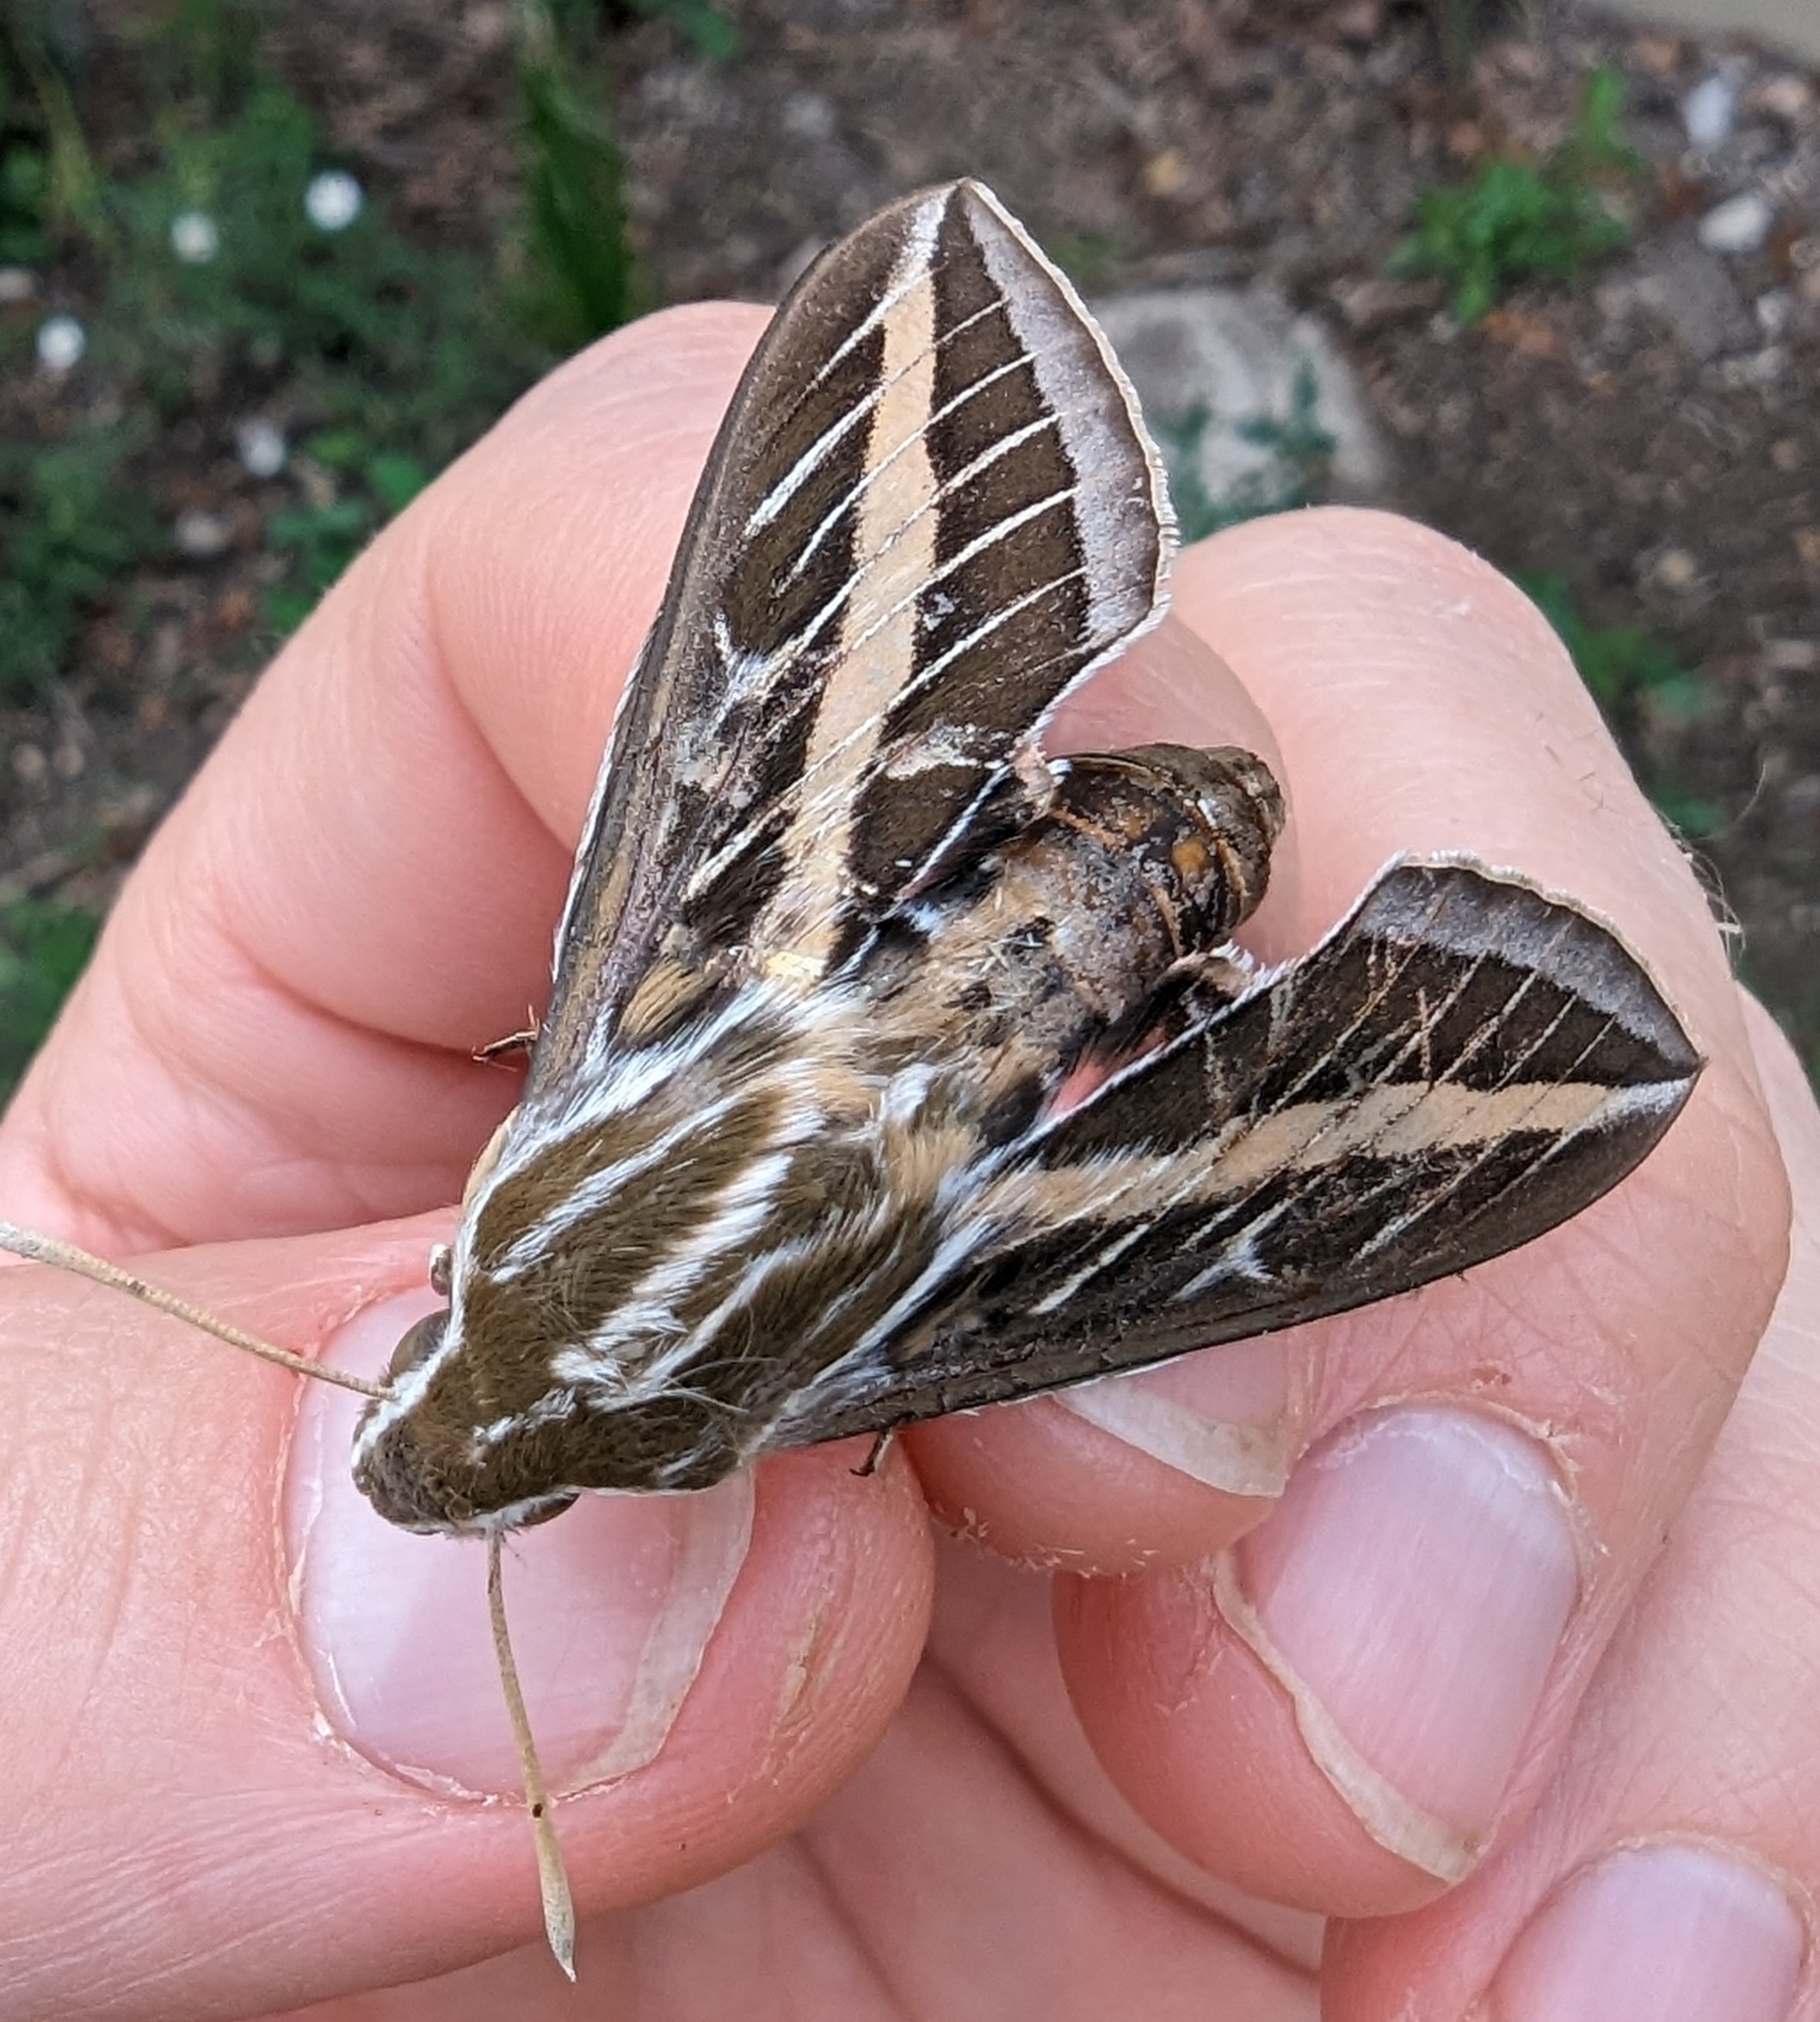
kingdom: Animalia
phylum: Arthropoda
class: Insecta
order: Lepidoptera
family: Sphingidae
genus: Hyles
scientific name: Hyles lineata
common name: White-lined sphinx
